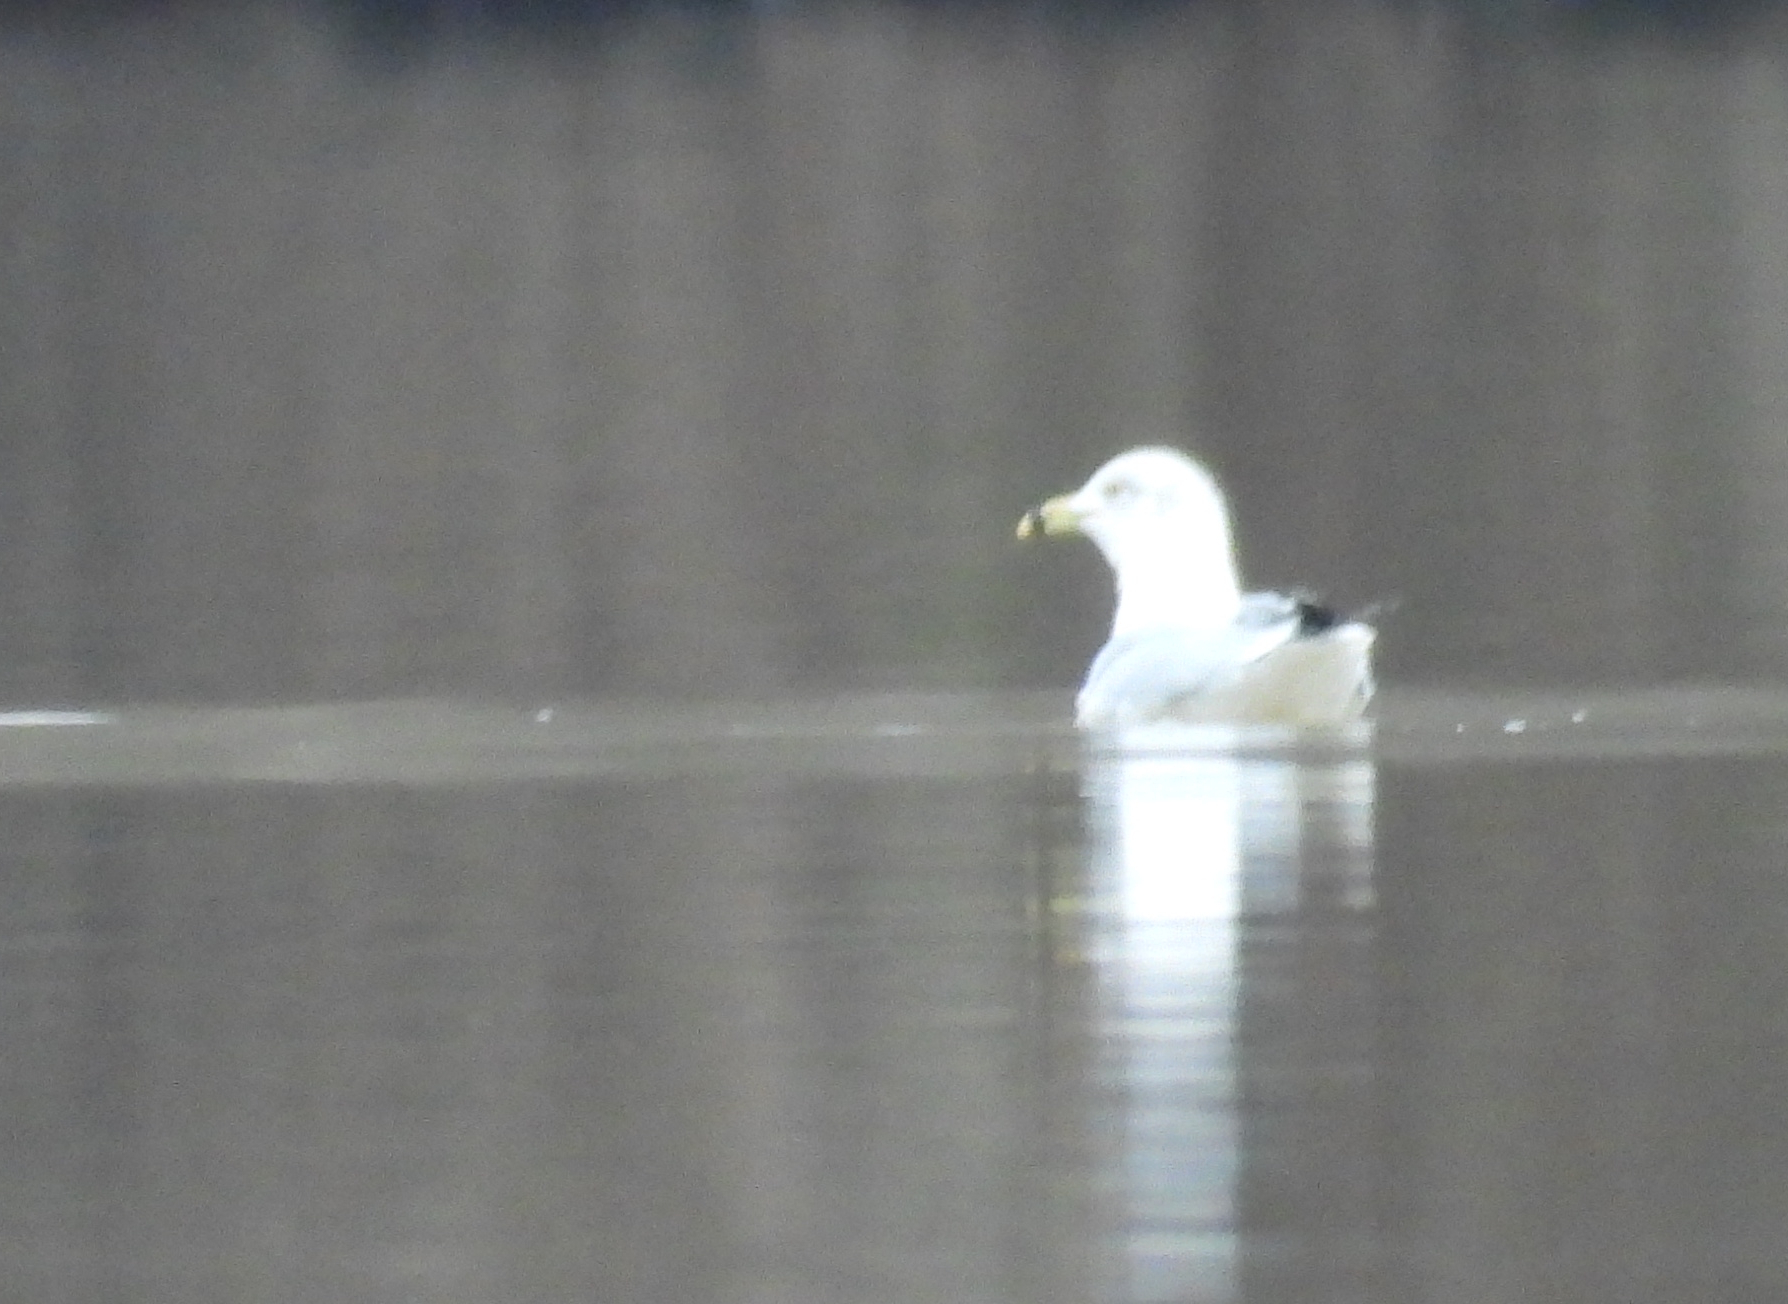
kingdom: Animalia
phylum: Chordata
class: Aves
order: Charadriiformes
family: Laridae
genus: Larus
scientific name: Larus delawarensis
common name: Ring-billed gull
